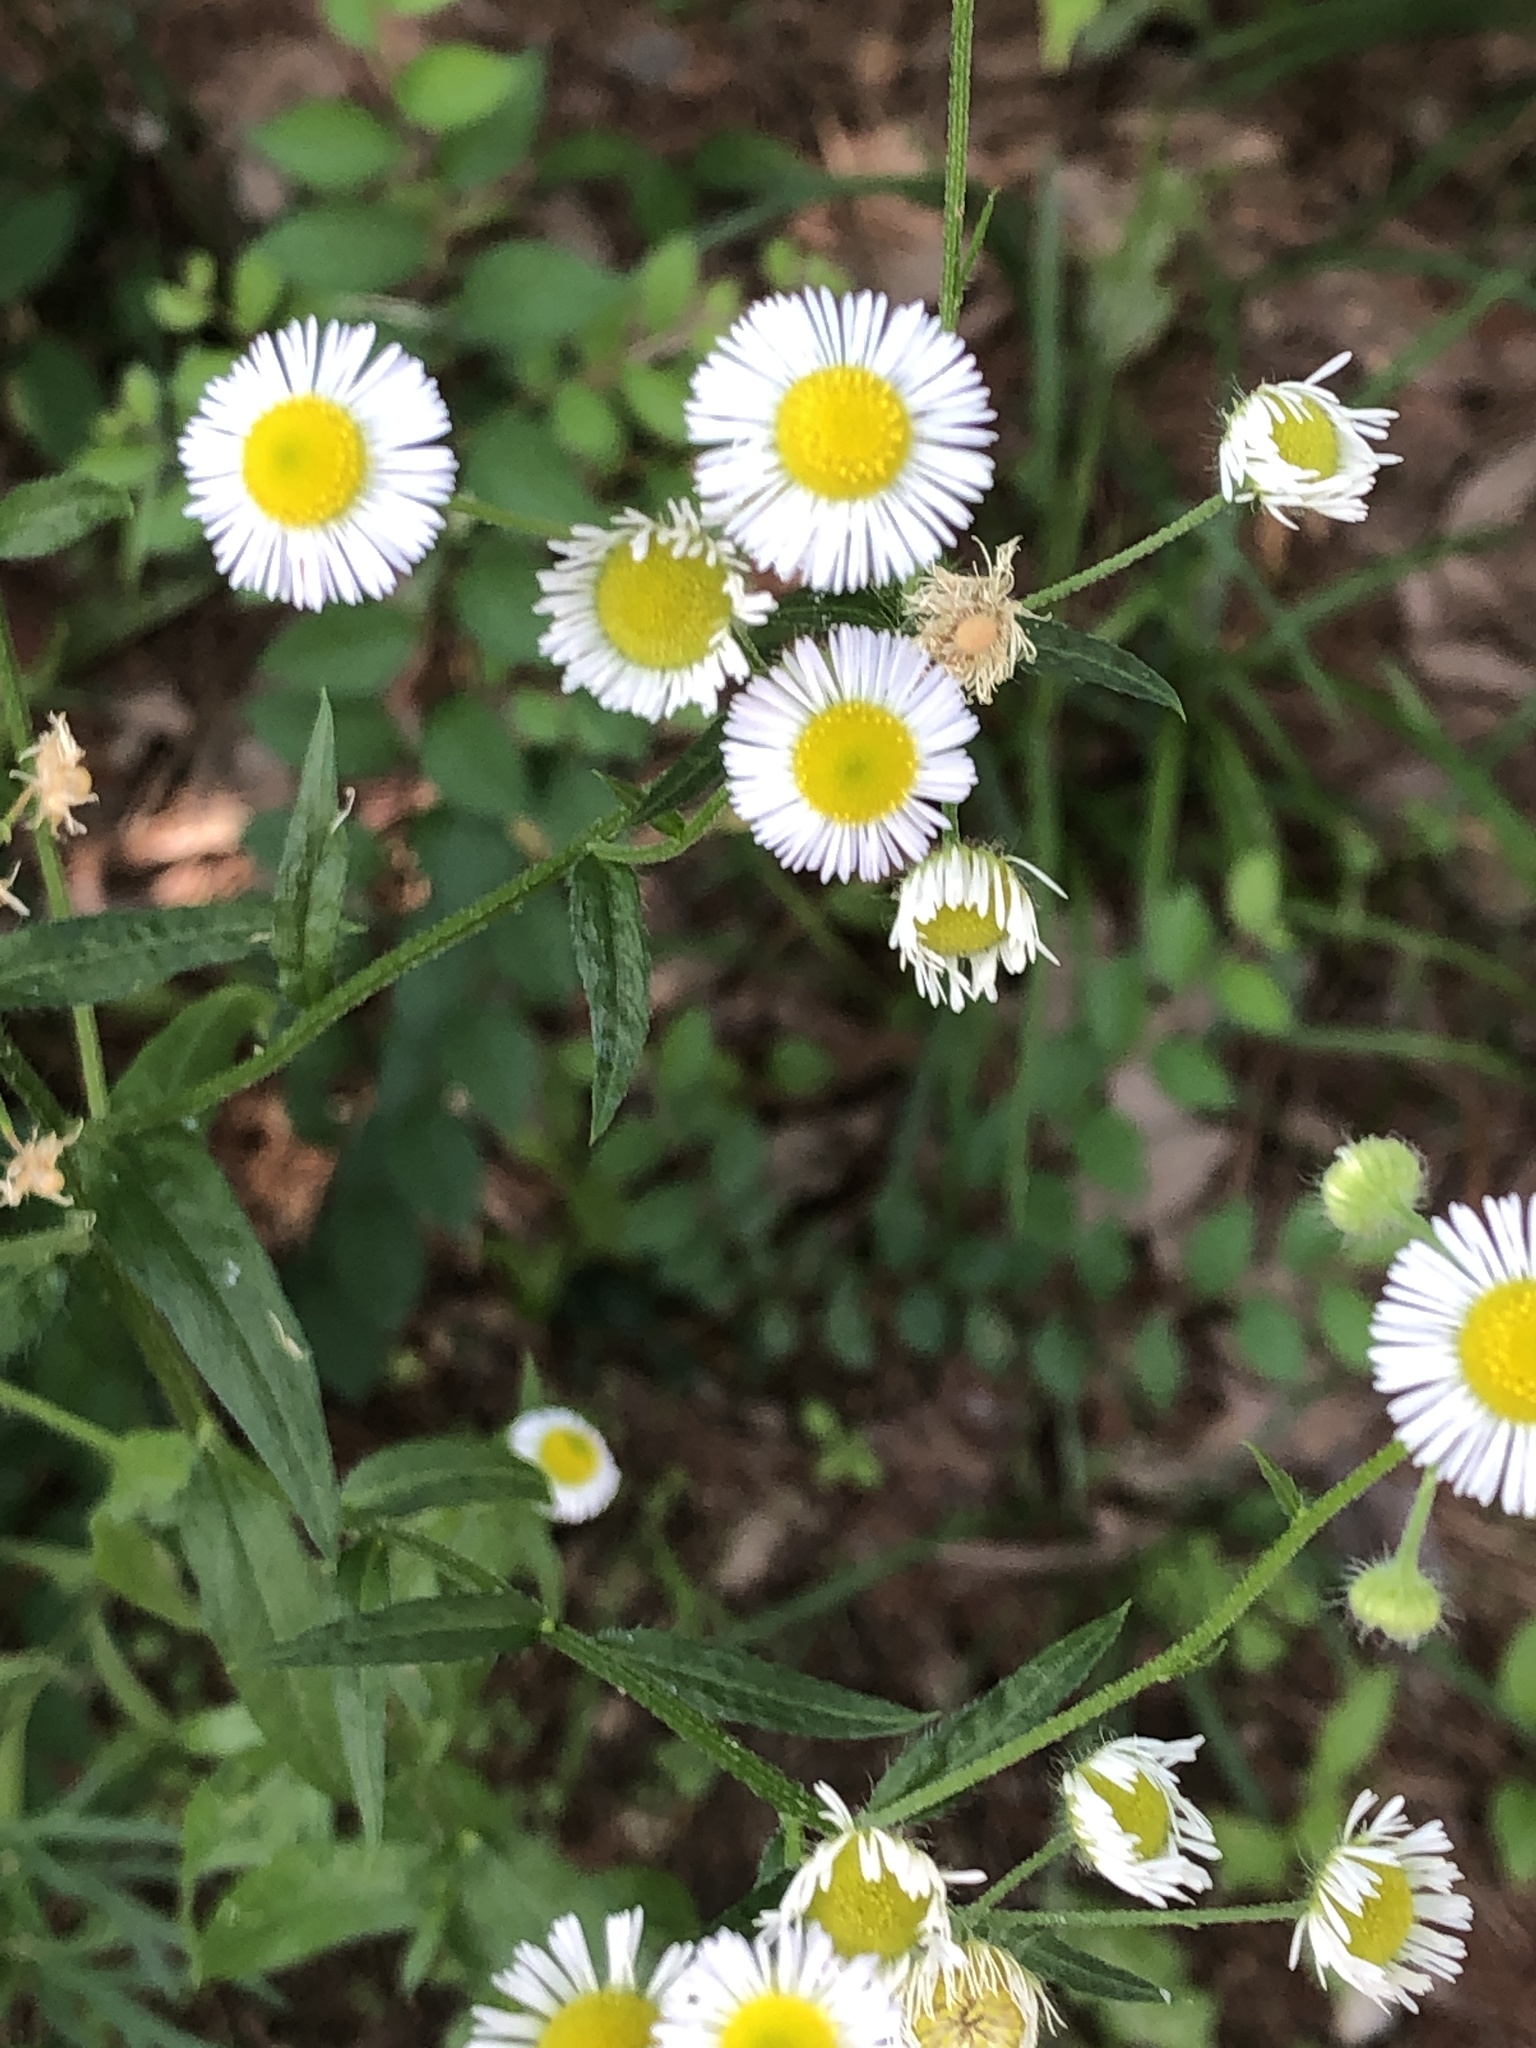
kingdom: Plantae
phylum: Tracheophyta
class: Magnoliopsida
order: Asterales
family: Asteraceae
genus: Erigeron
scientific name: Erigeron annuus
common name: Tall fleabane
